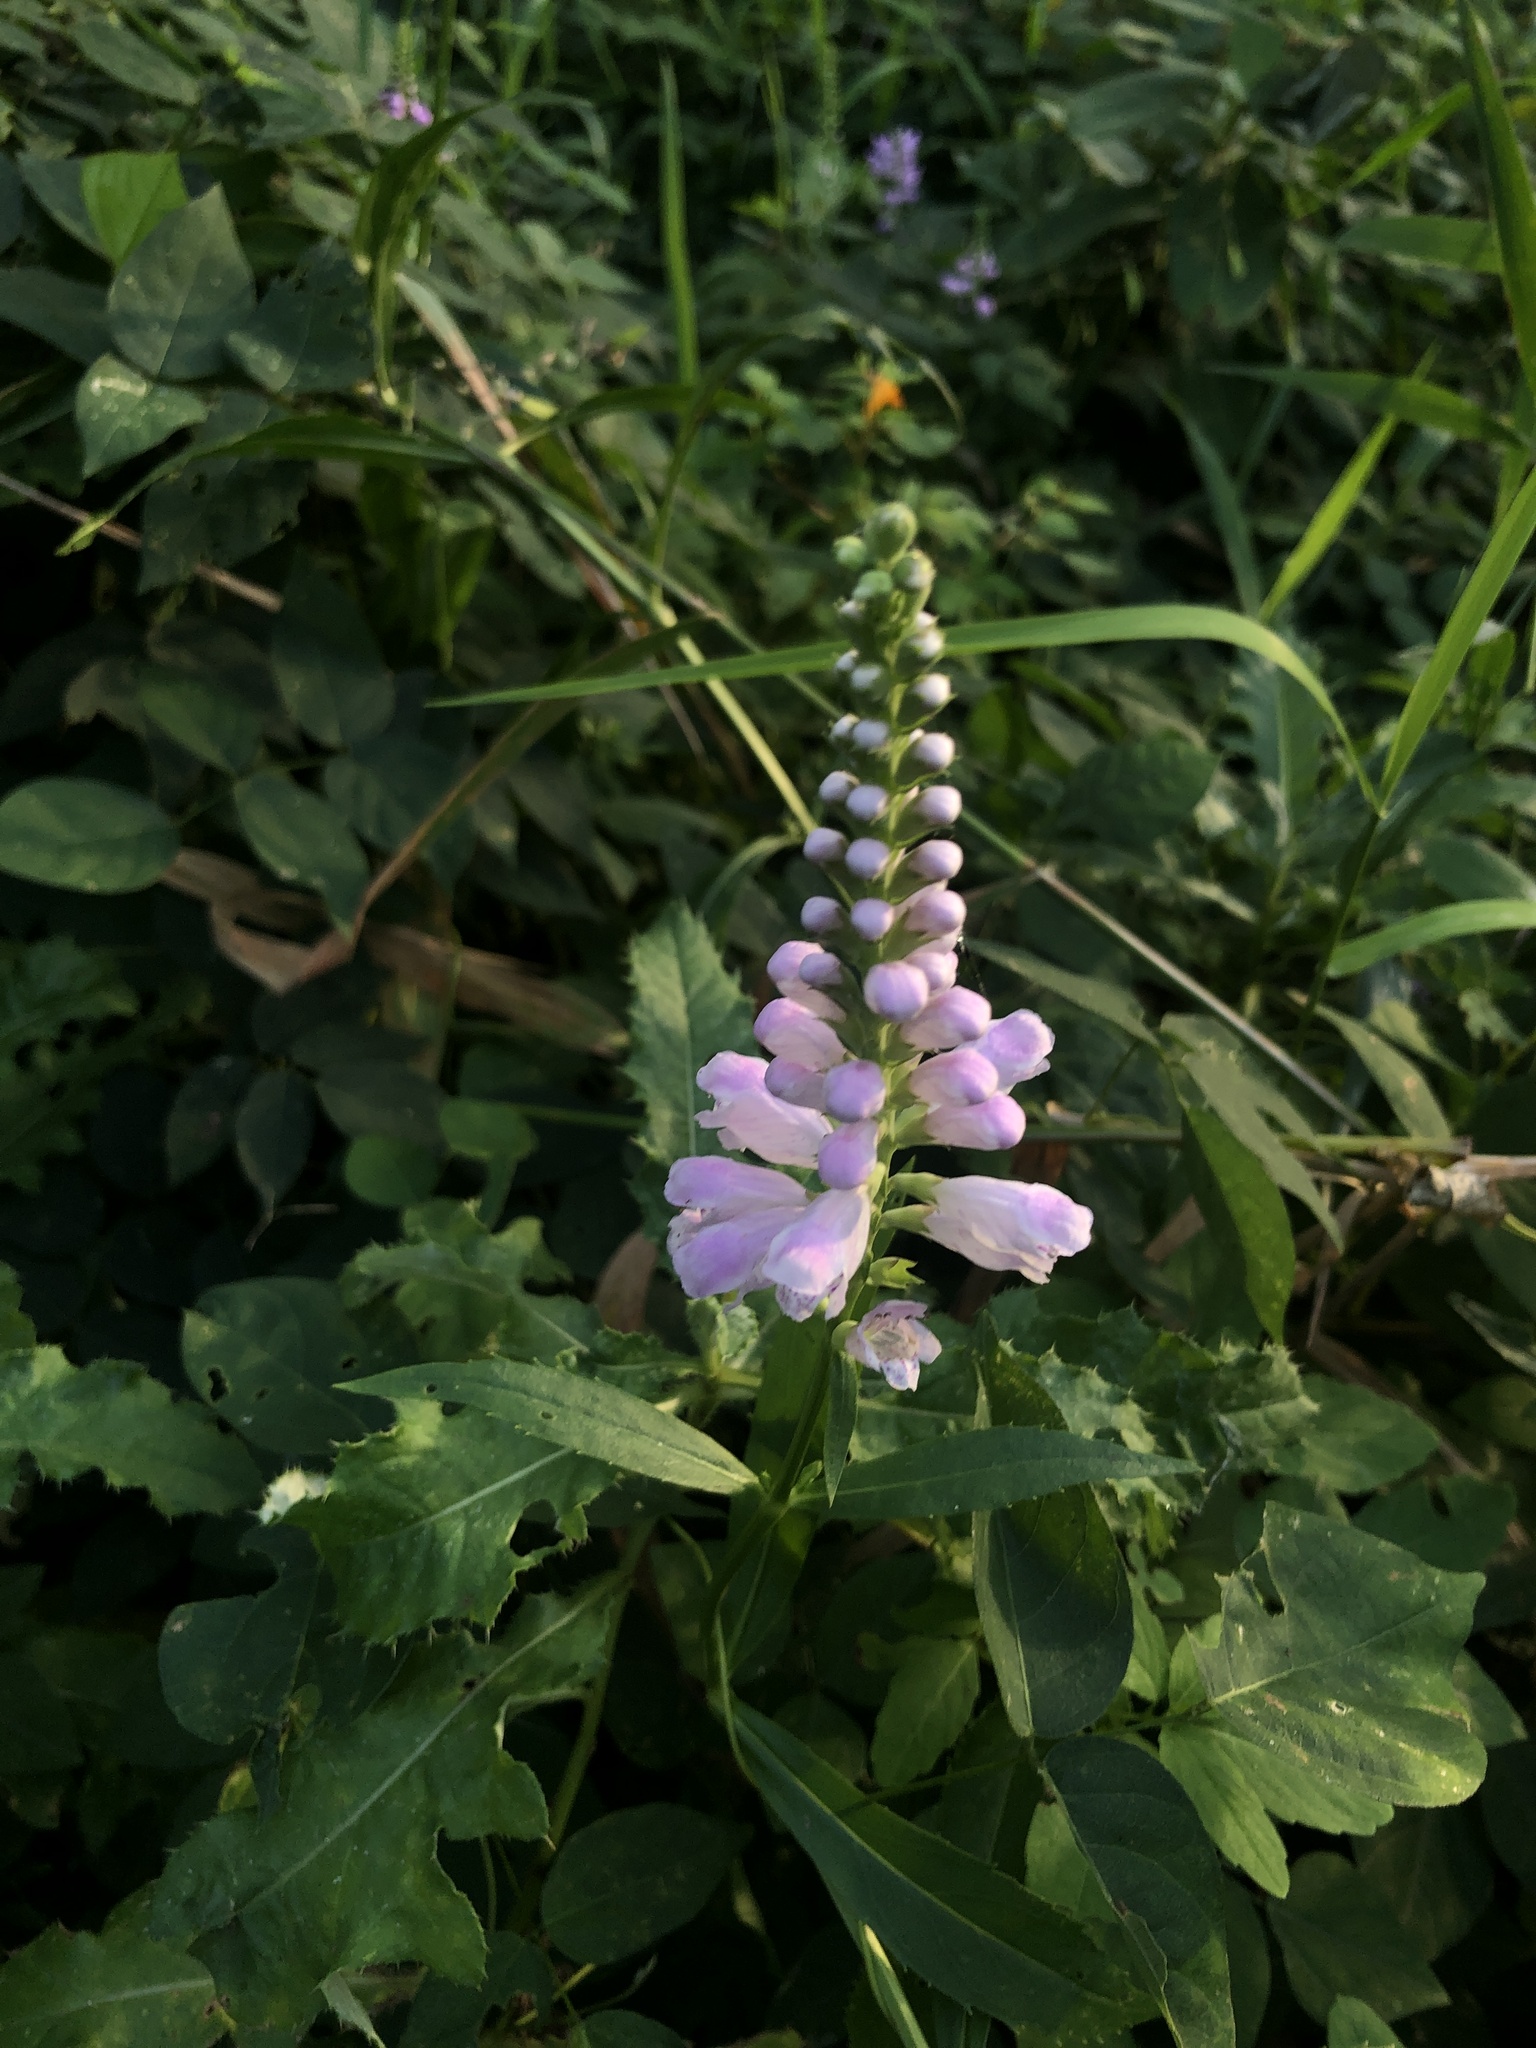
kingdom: Plantae
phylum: Tracheophyta
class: Magnoliopsida
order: Lamiales
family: Lamiaceae
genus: Physostegia
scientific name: Physostegia virginiana
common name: Obedient-plant
